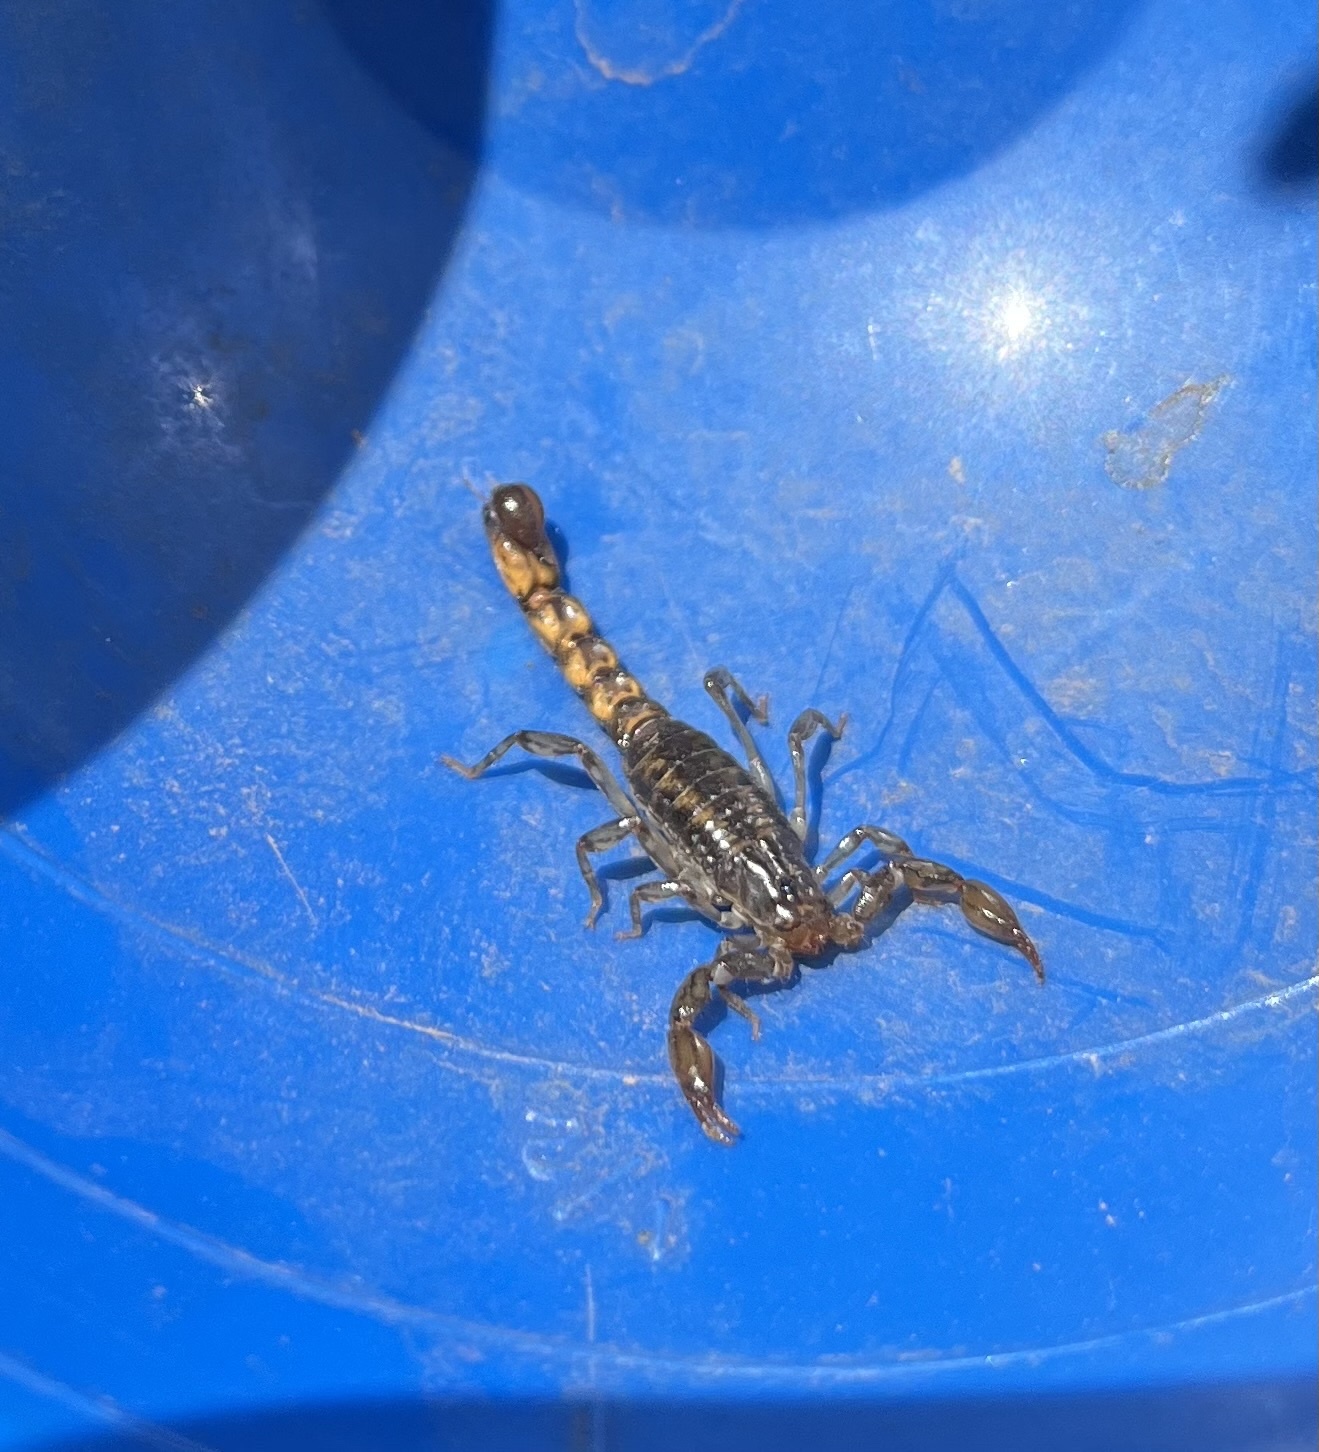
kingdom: Animalia
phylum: Arthropoda
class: Arachnida
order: Scorpiones
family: Superstitioniidae
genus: Superstitionia
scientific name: Superstitionia donensis
